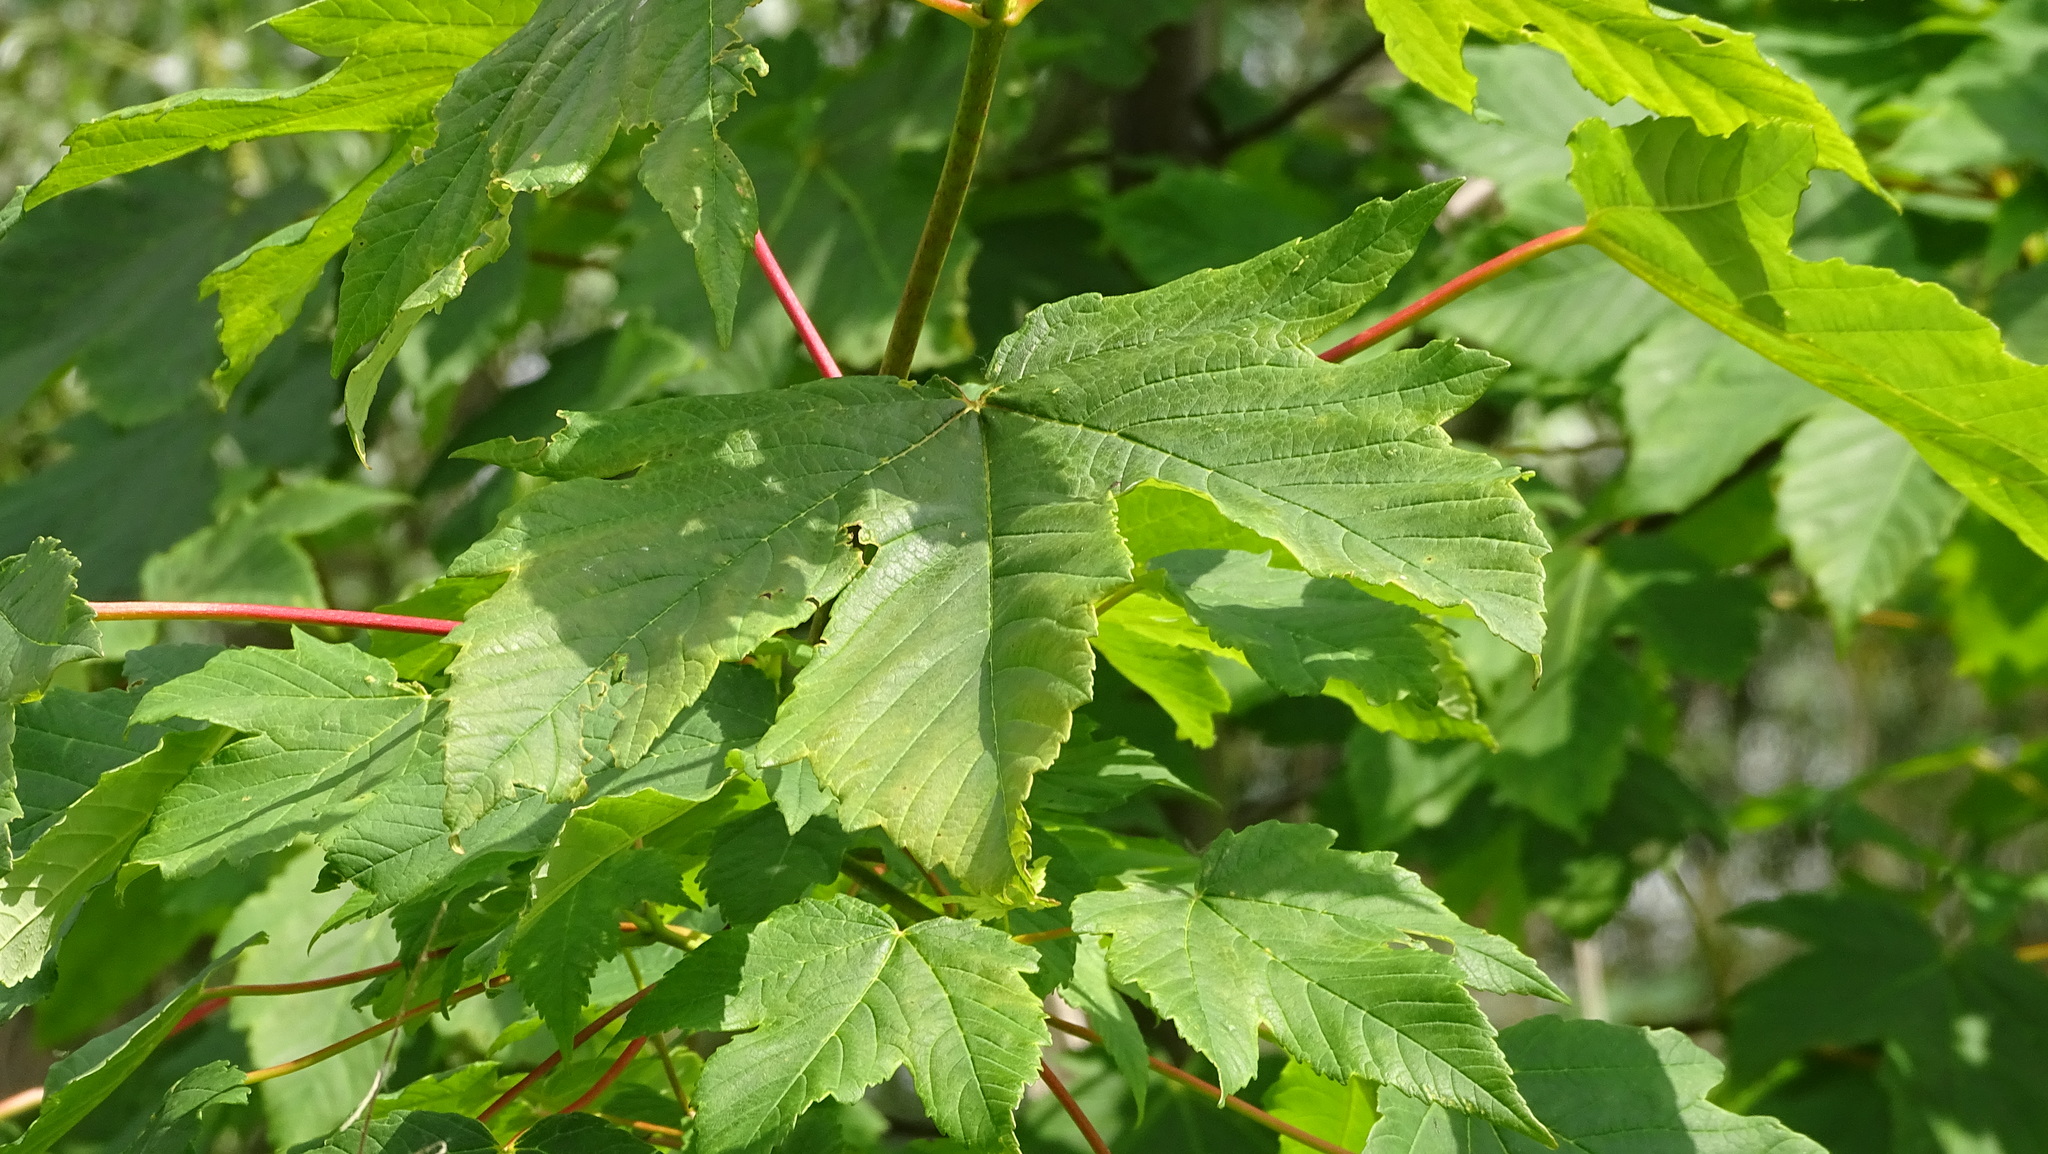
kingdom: Plantae
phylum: Tracheophyta
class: Magnoliopsida
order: Sapindales
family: Sapindaceae
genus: Acer
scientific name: Acer pseudoplatanus
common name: Sycamore
